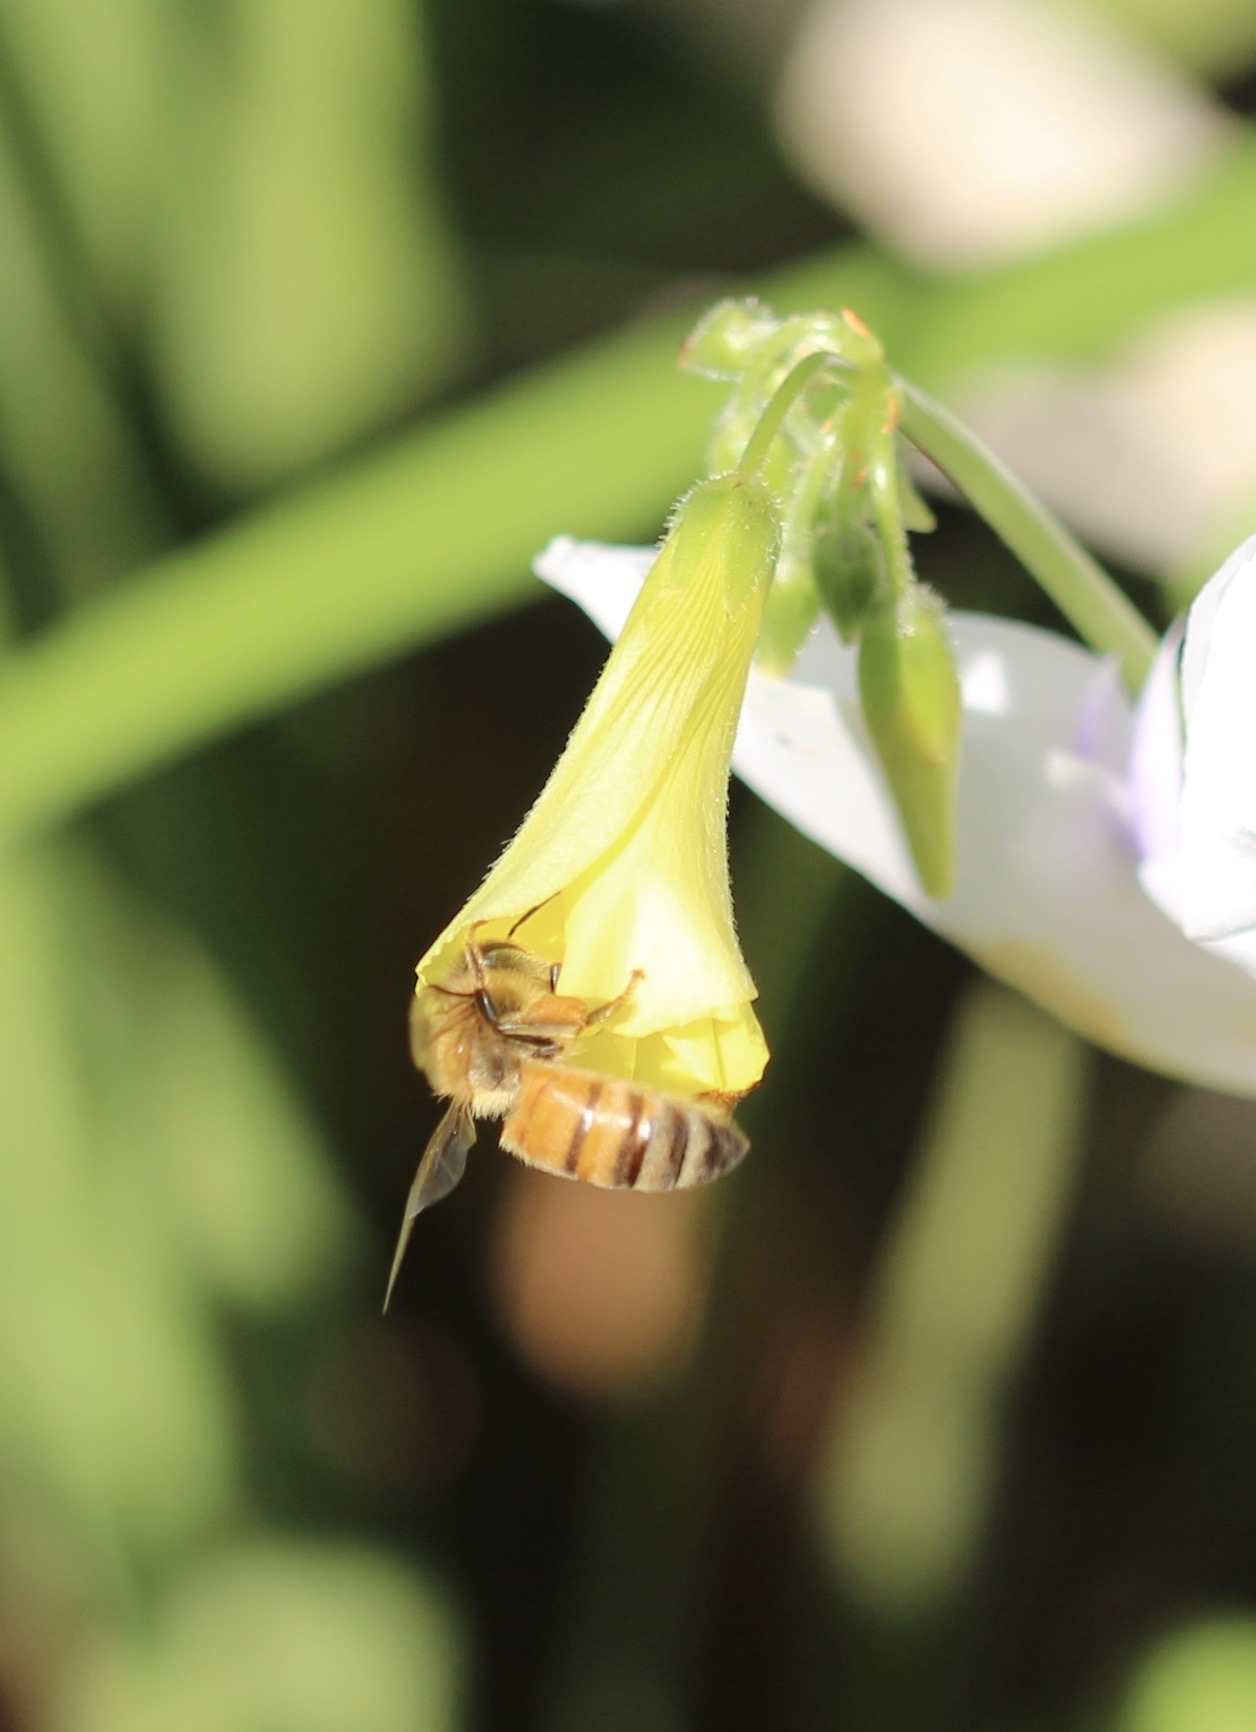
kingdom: Animalia
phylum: Arthropoda
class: Insecta
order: Hymenoptera
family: Apidae
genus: Apis
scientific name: Apis mellifera
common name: Honey bee
